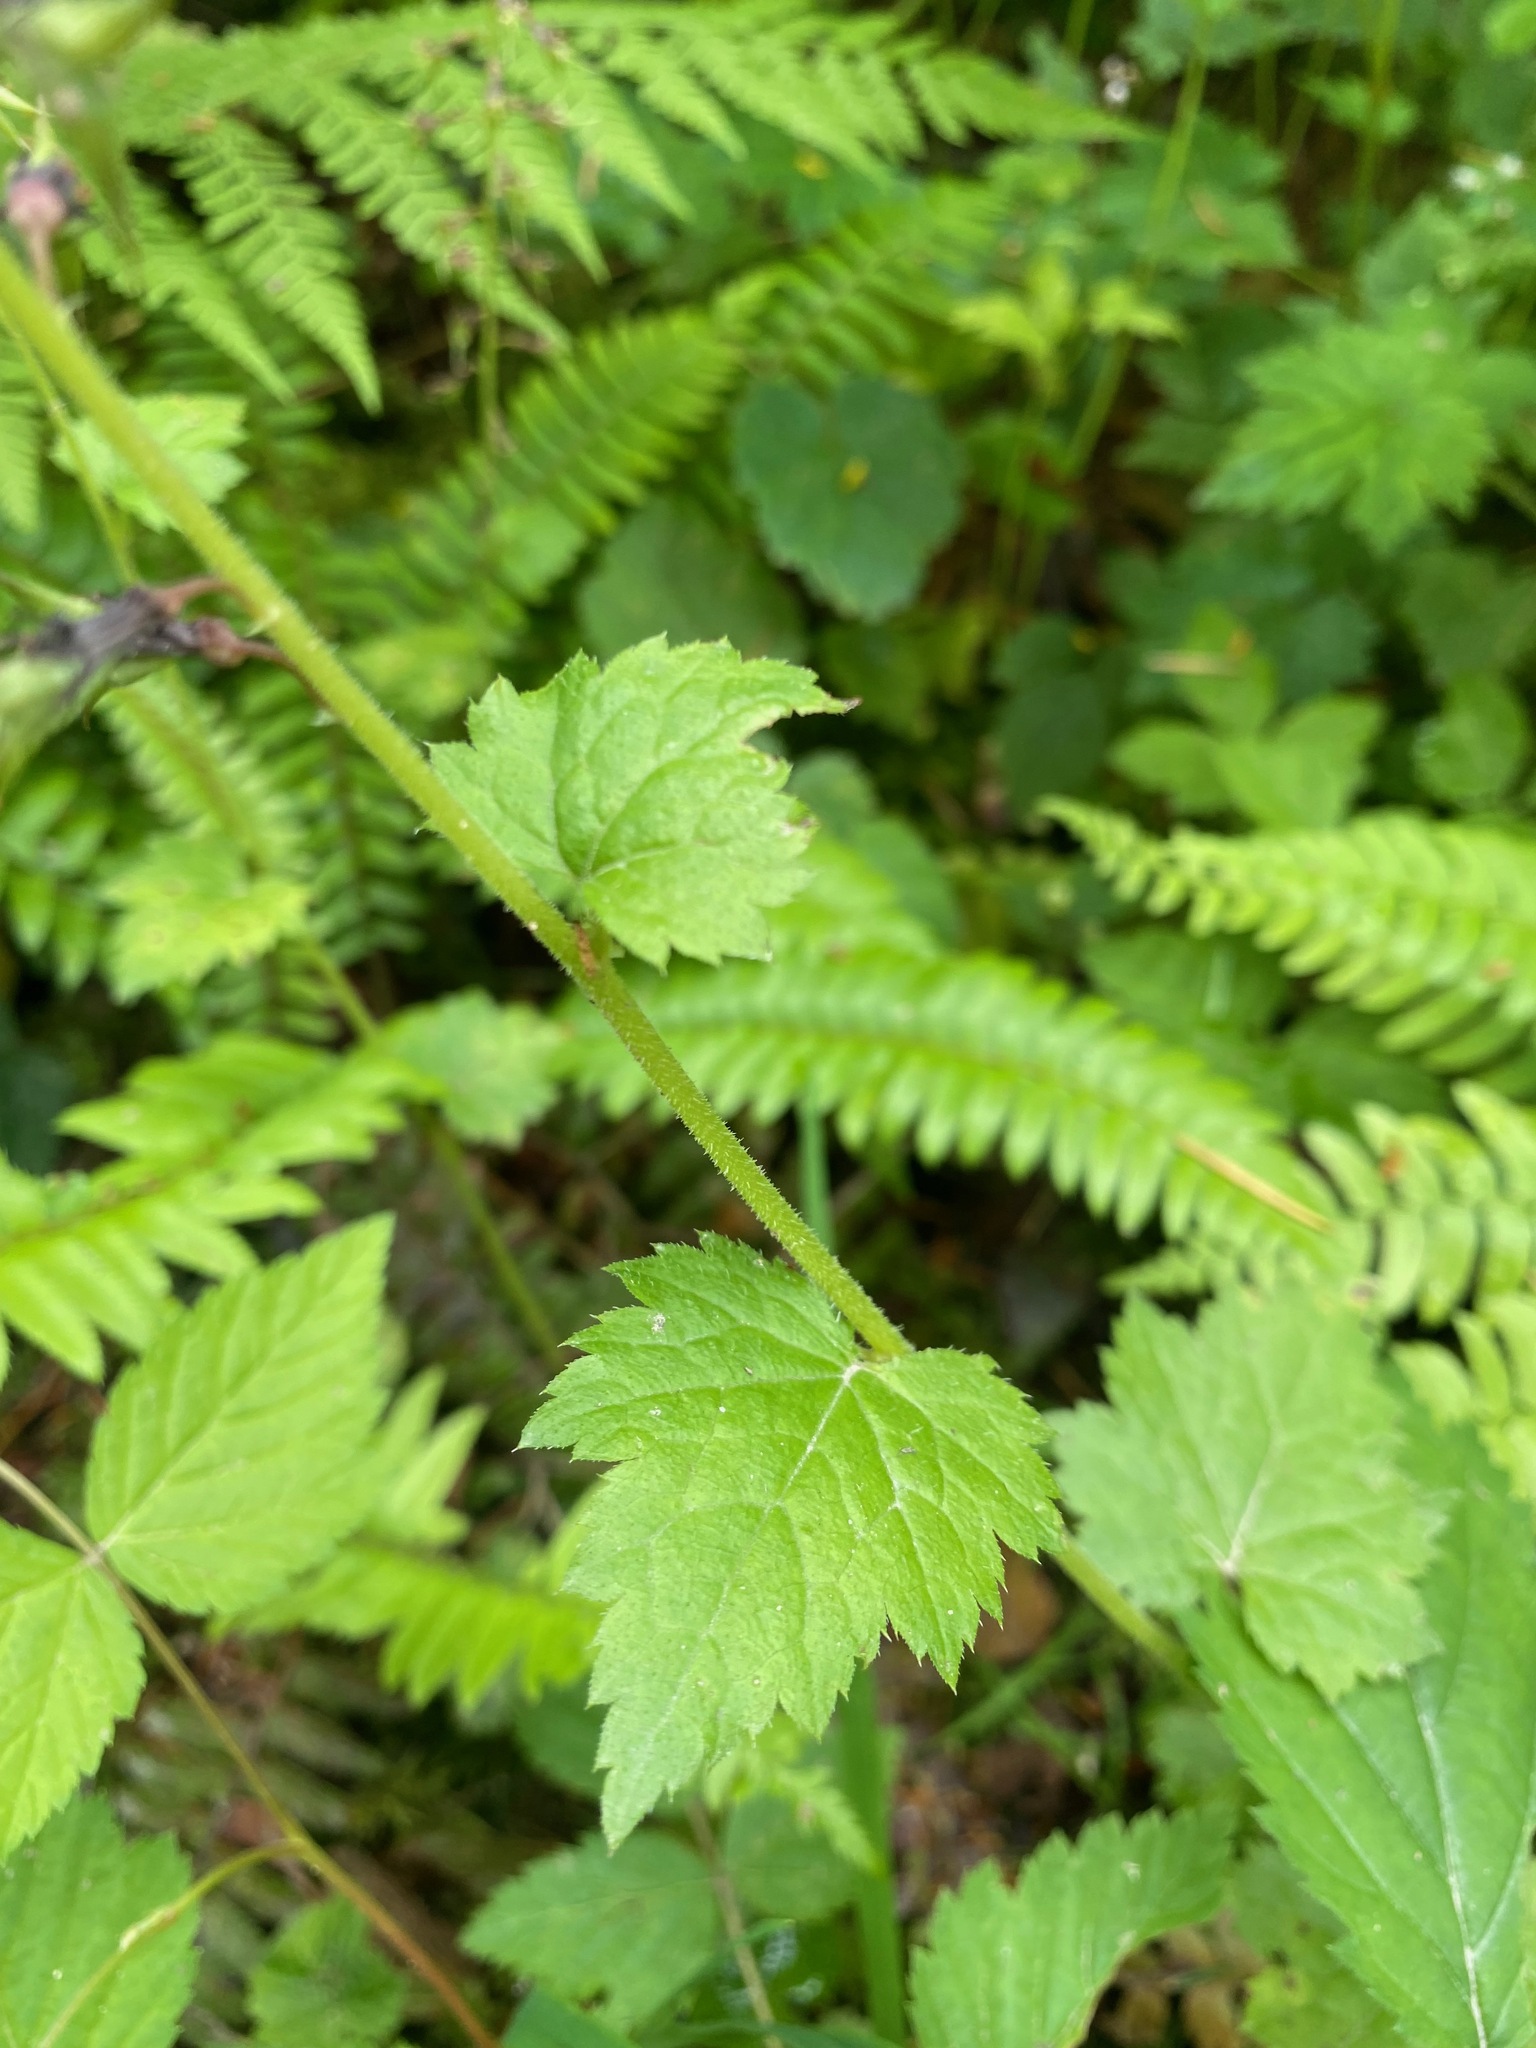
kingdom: Plantae
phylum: Tracheophyta
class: Magnoliopsida
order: Saxifragales
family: Saxifragaceae
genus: Tolmiea
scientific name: Tolmiea menziesii
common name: Pick-a-back-plant
